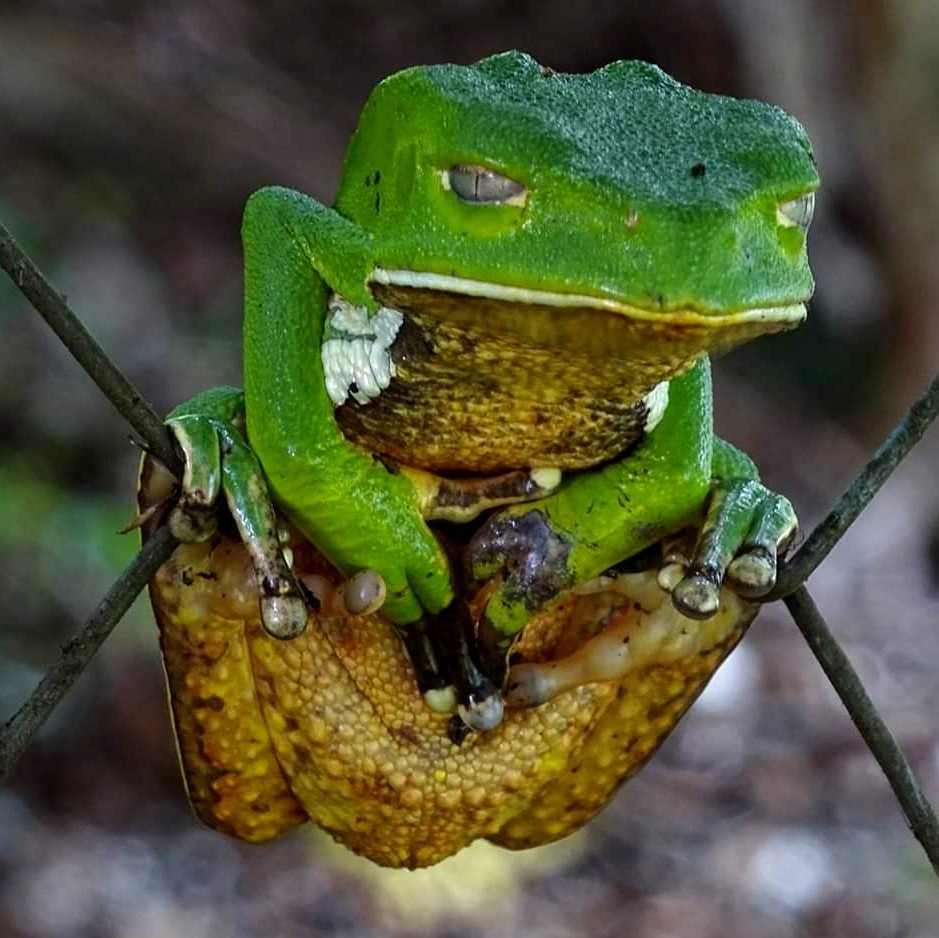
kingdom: Animalia
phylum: Chordata
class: Amphibia
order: Anura
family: Phyllomedusidae
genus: Phyllomedusa
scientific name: Phyllomedusa burmeisteri
